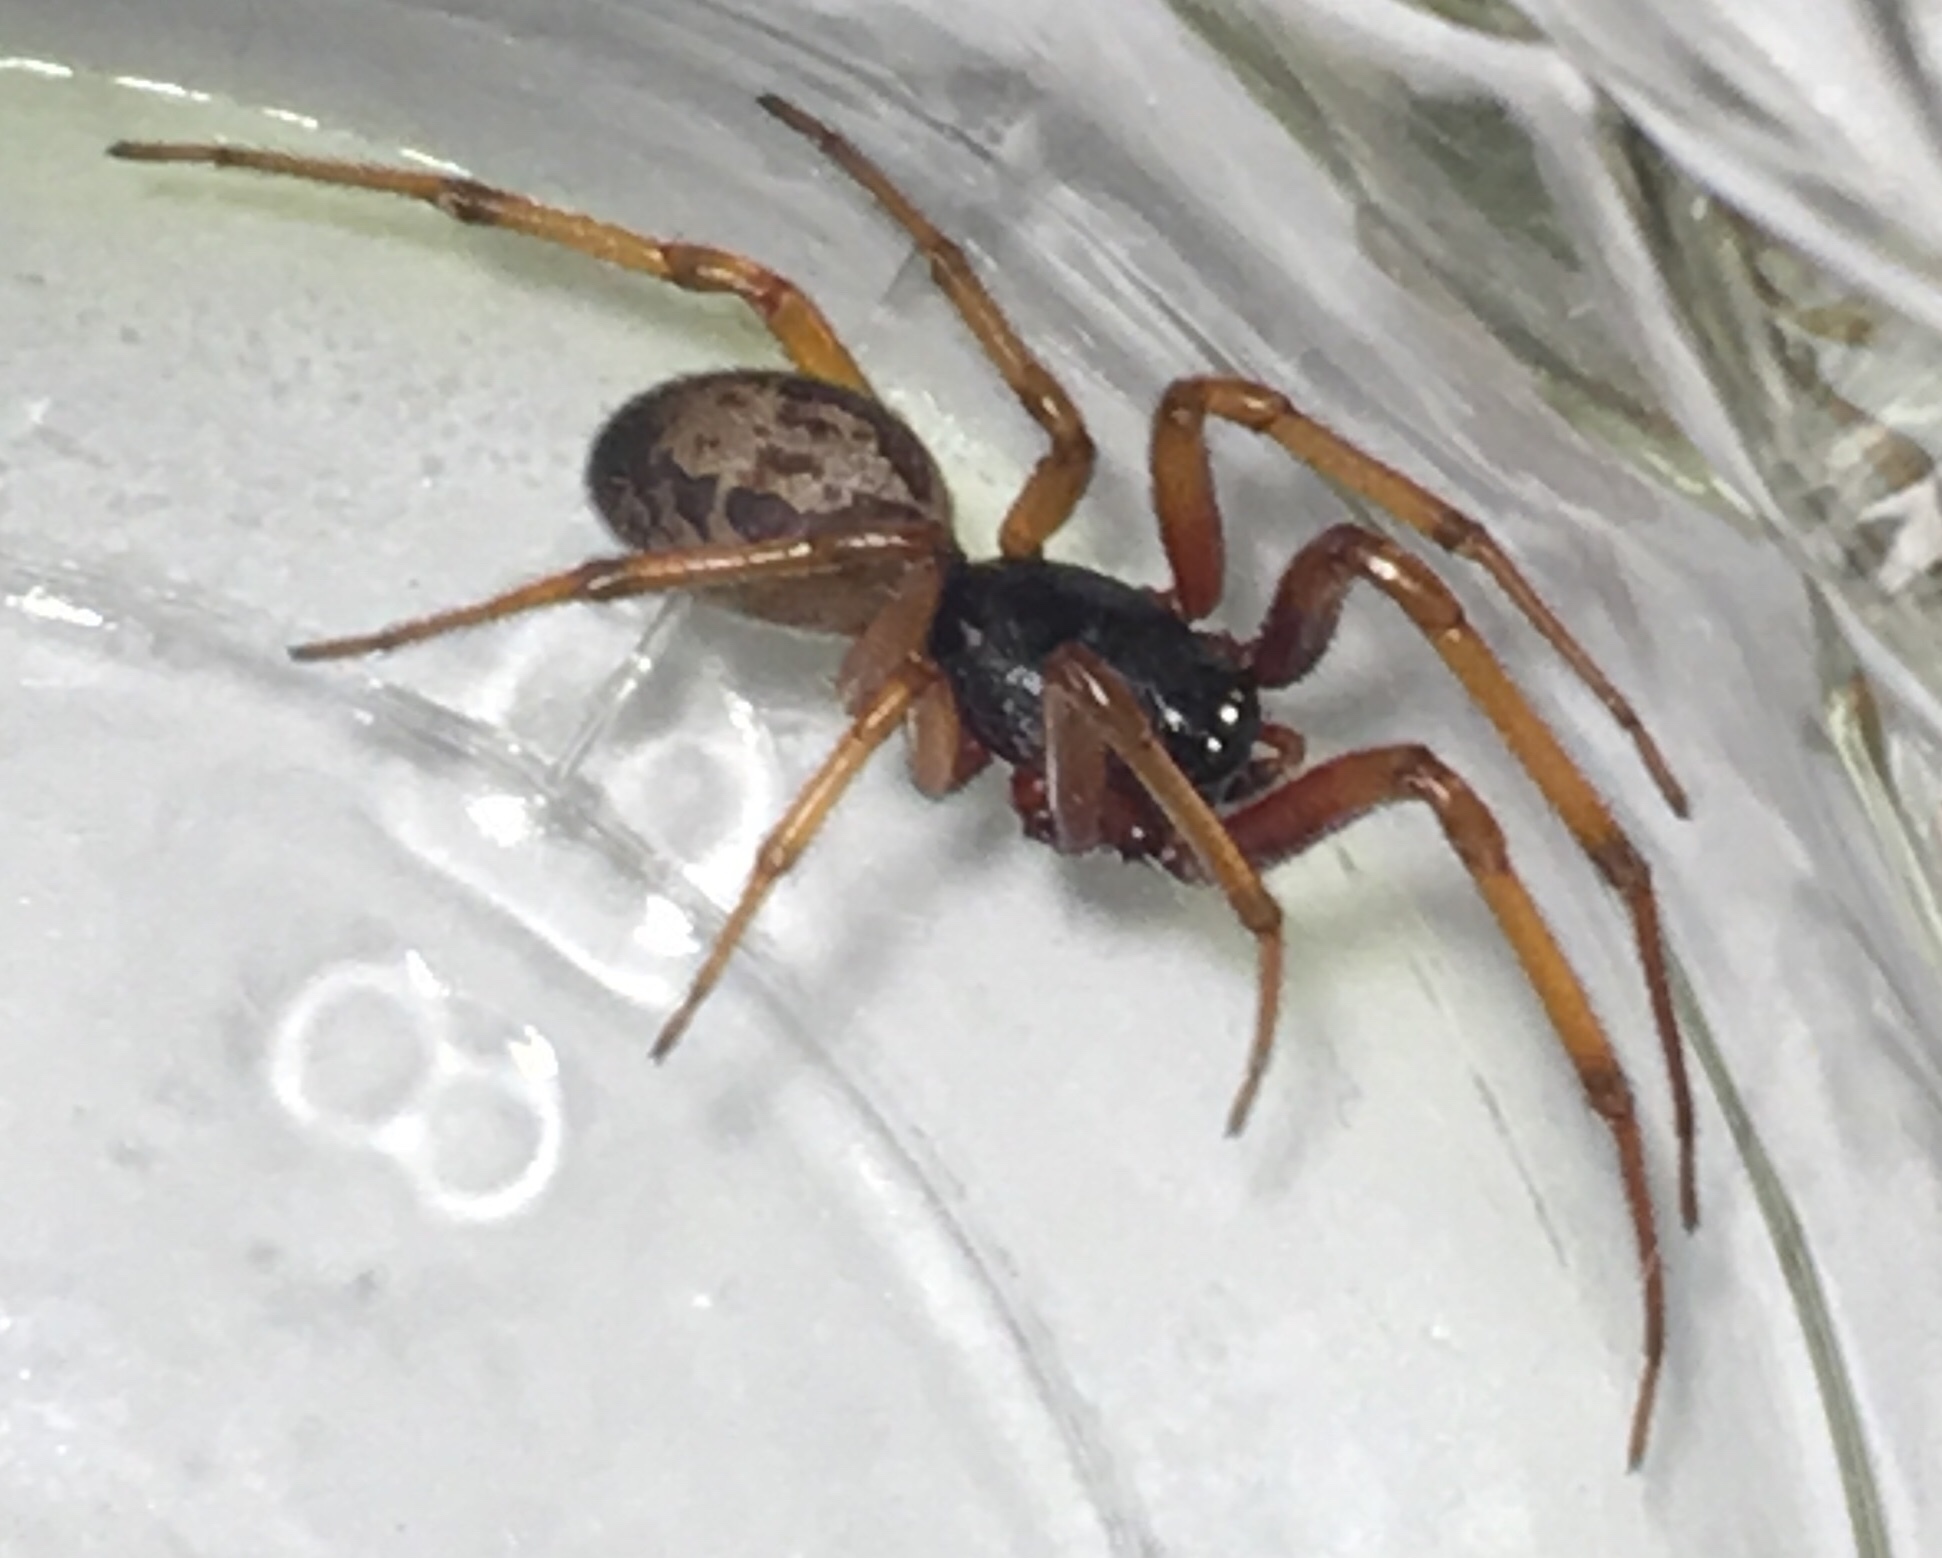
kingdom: Animalia
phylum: Arthropoda
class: Arachnida
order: Araneae
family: Theridiidae
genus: Steatoda
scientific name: Steatoda nobilis
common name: Cobweb weaver
